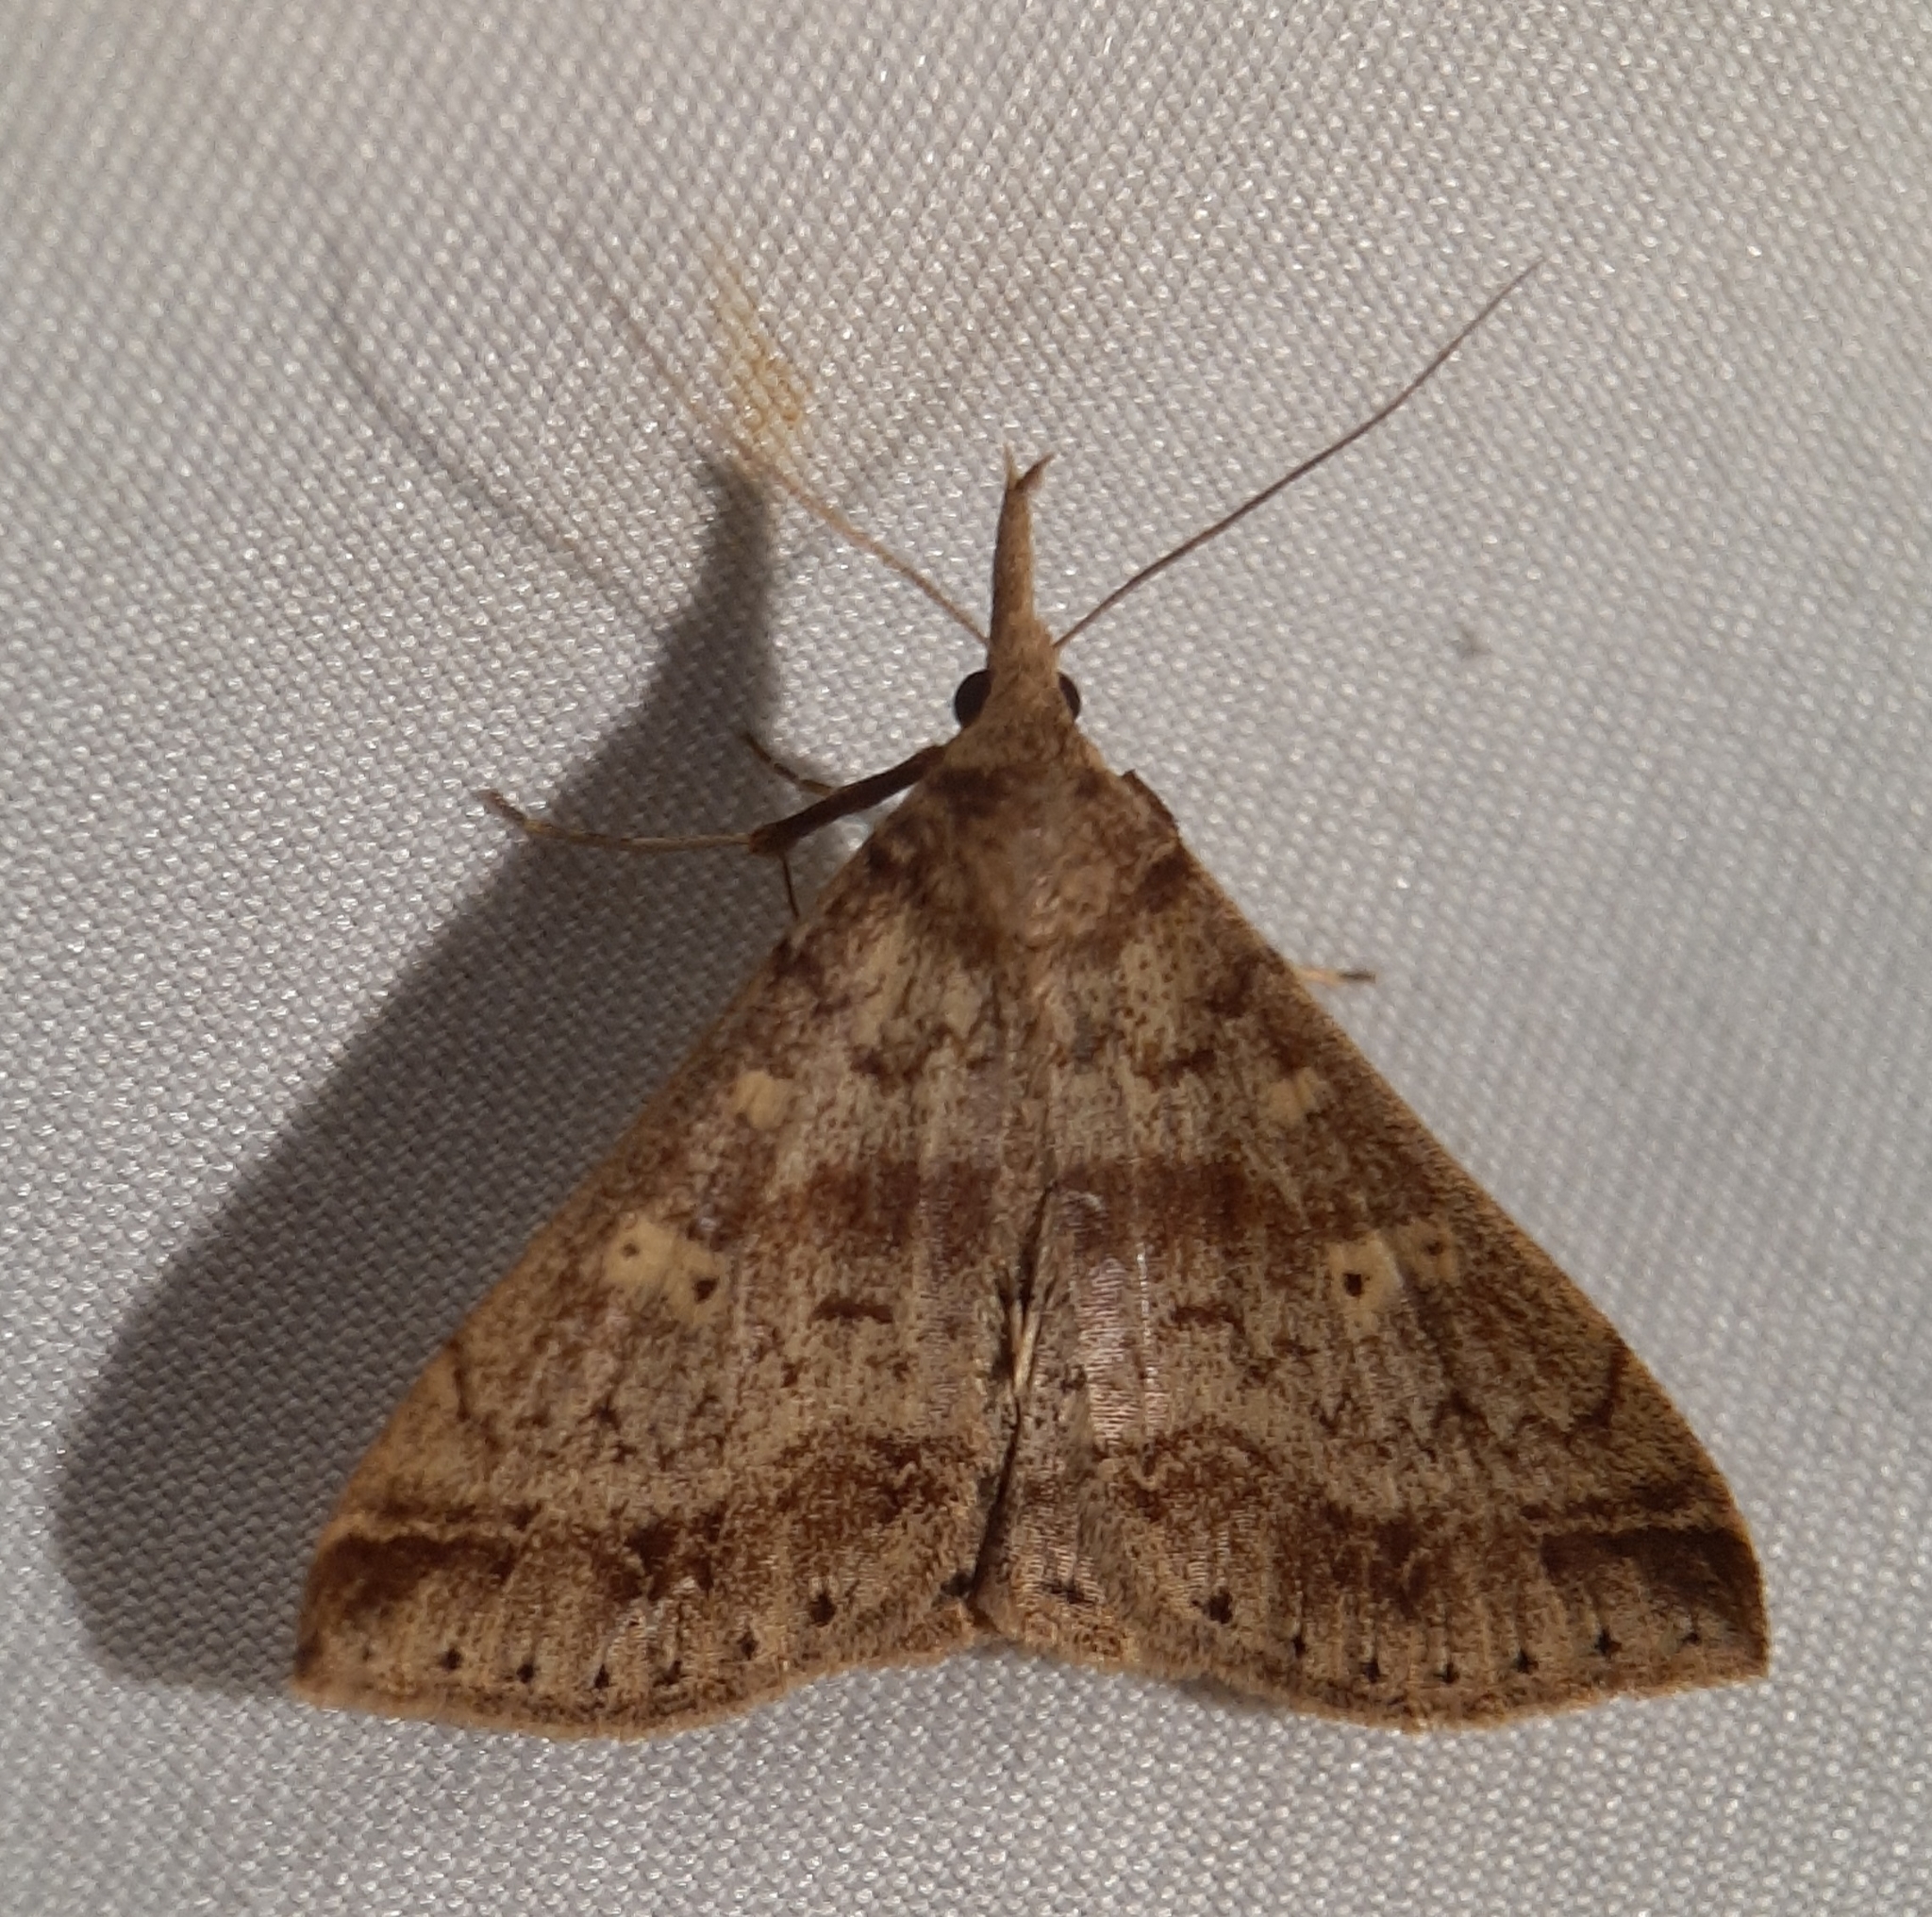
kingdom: Animalia
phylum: Arthropoda
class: Insecta
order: Lepidoptera
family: Erebidae
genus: Renia
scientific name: Renia discoloralis
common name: Discolored renia moth
